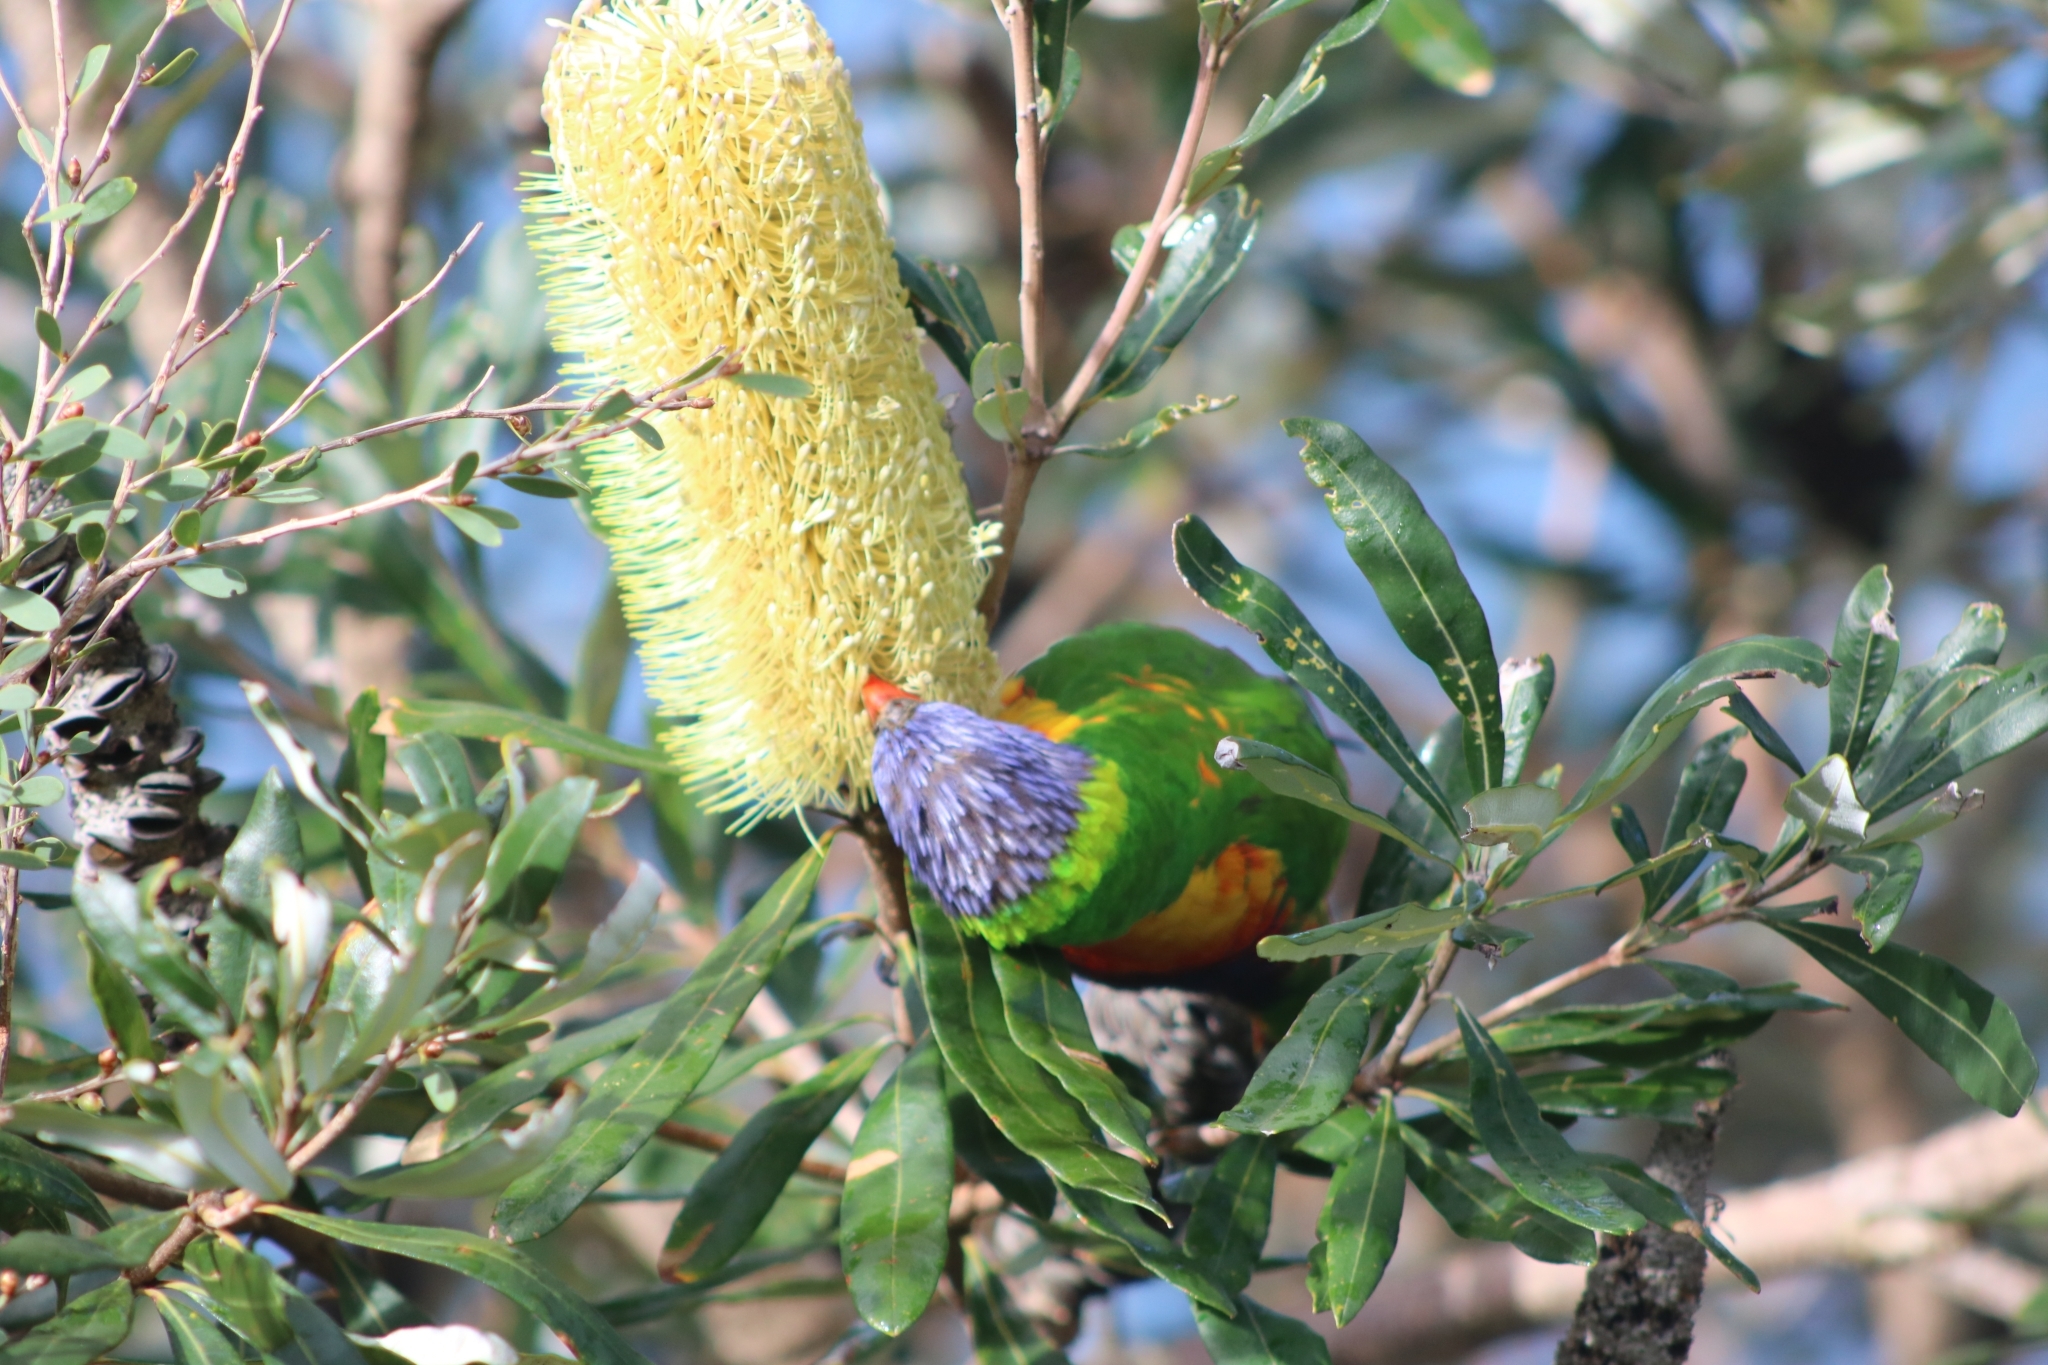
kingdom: Animalia
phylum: Chordata
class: Aves
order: Psittaciformes
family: Psittacidae
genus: Trichoglossus
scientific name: Trichoglossus haematodus
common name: Coconut lorikeet
